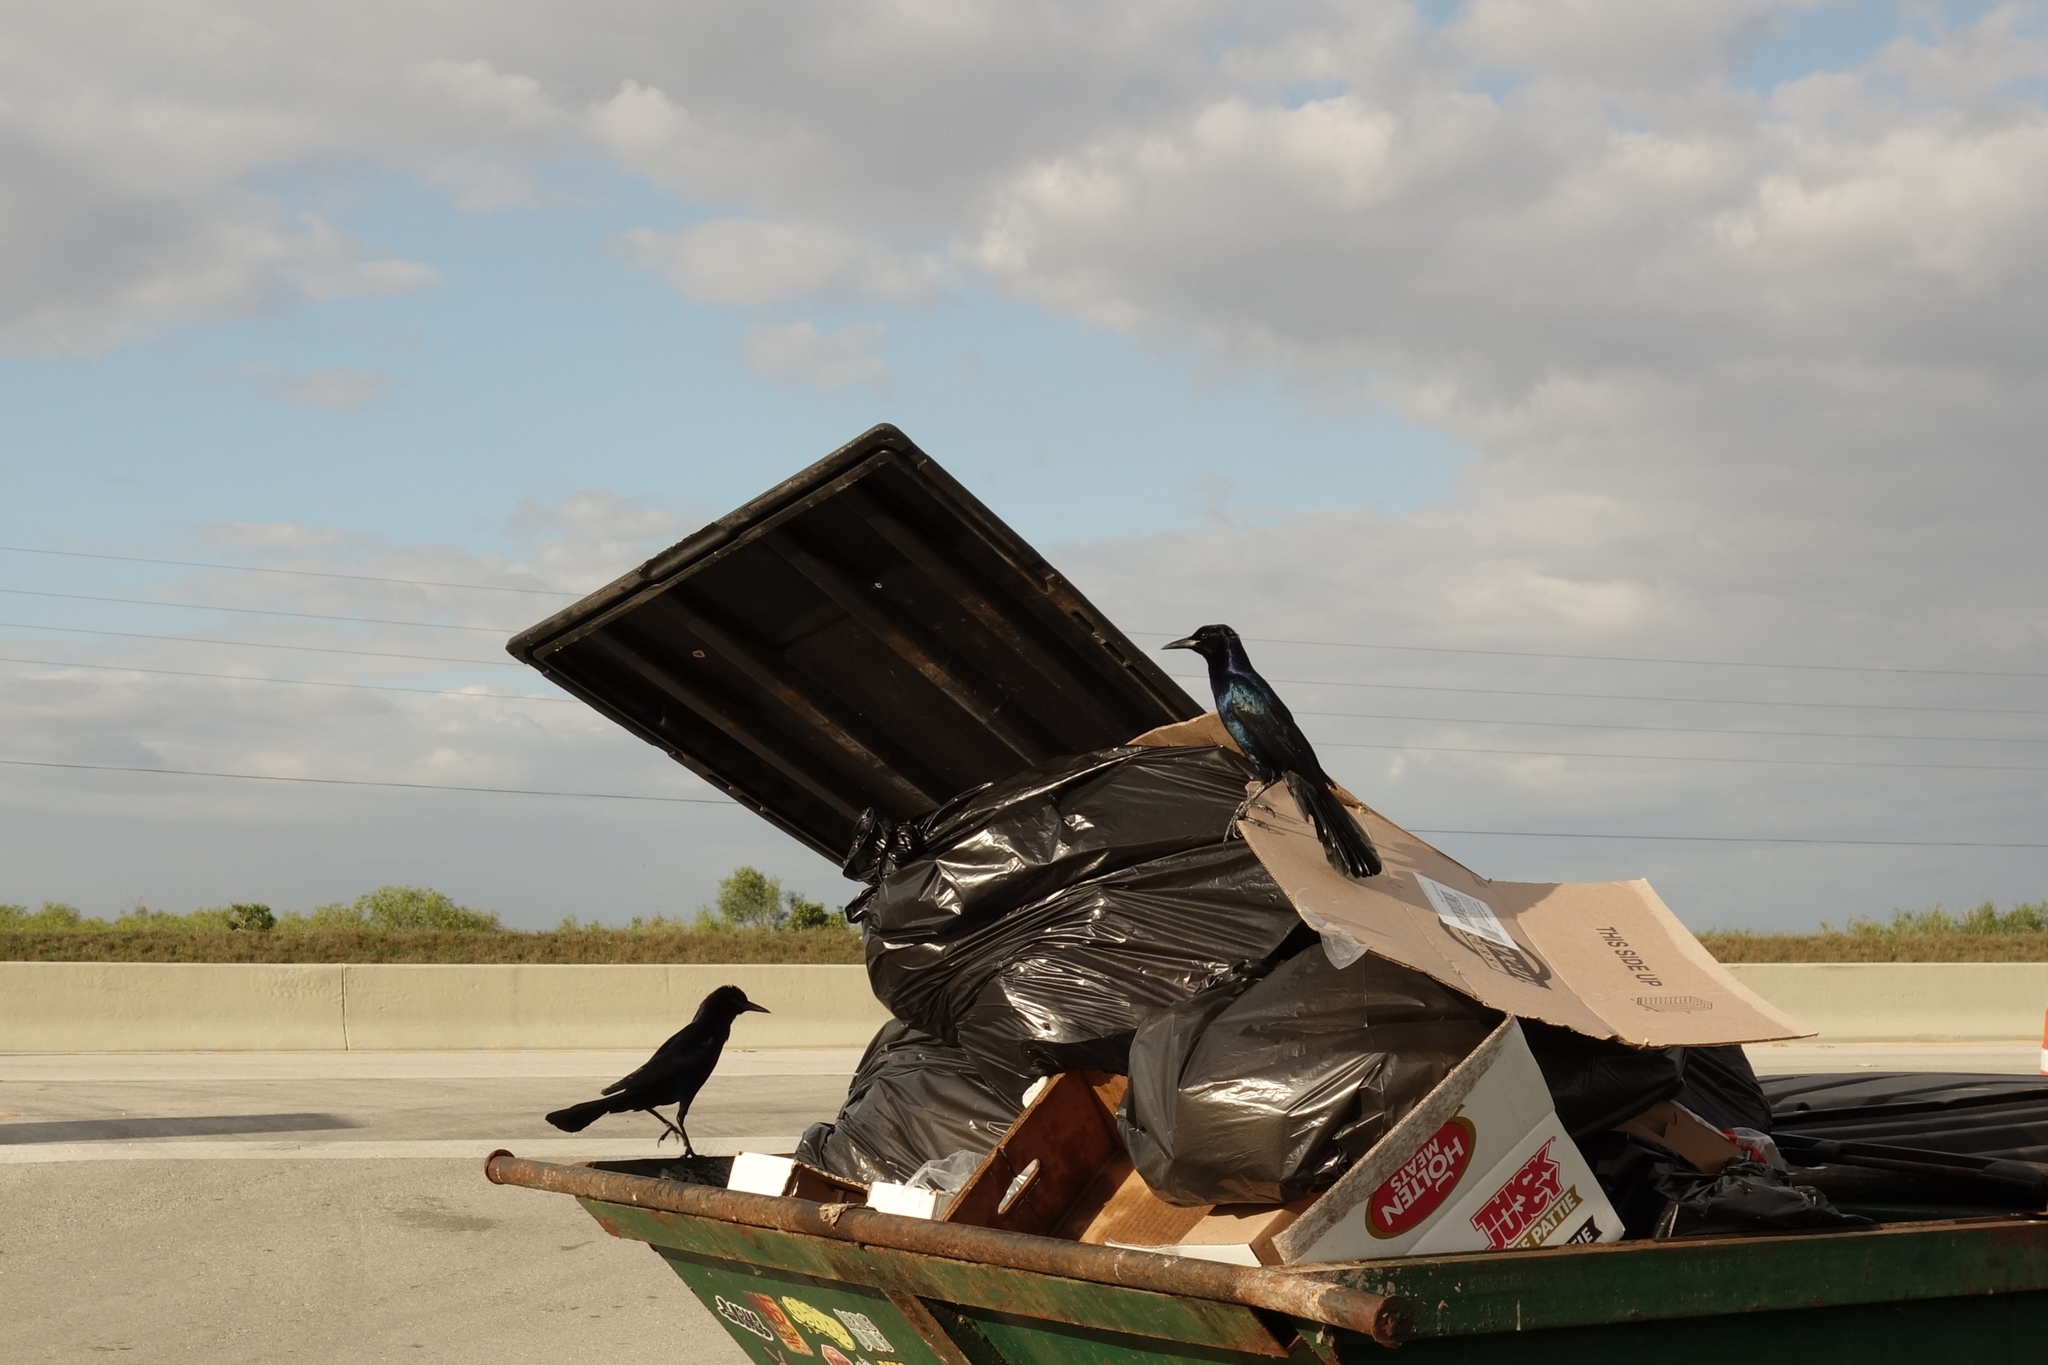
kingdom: Animalia
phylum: Chordata
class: Aves
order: Passeriformes
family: Icteridae
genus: Quiscalus
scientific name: Quiscalus major
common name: Boat-tailed grackle
